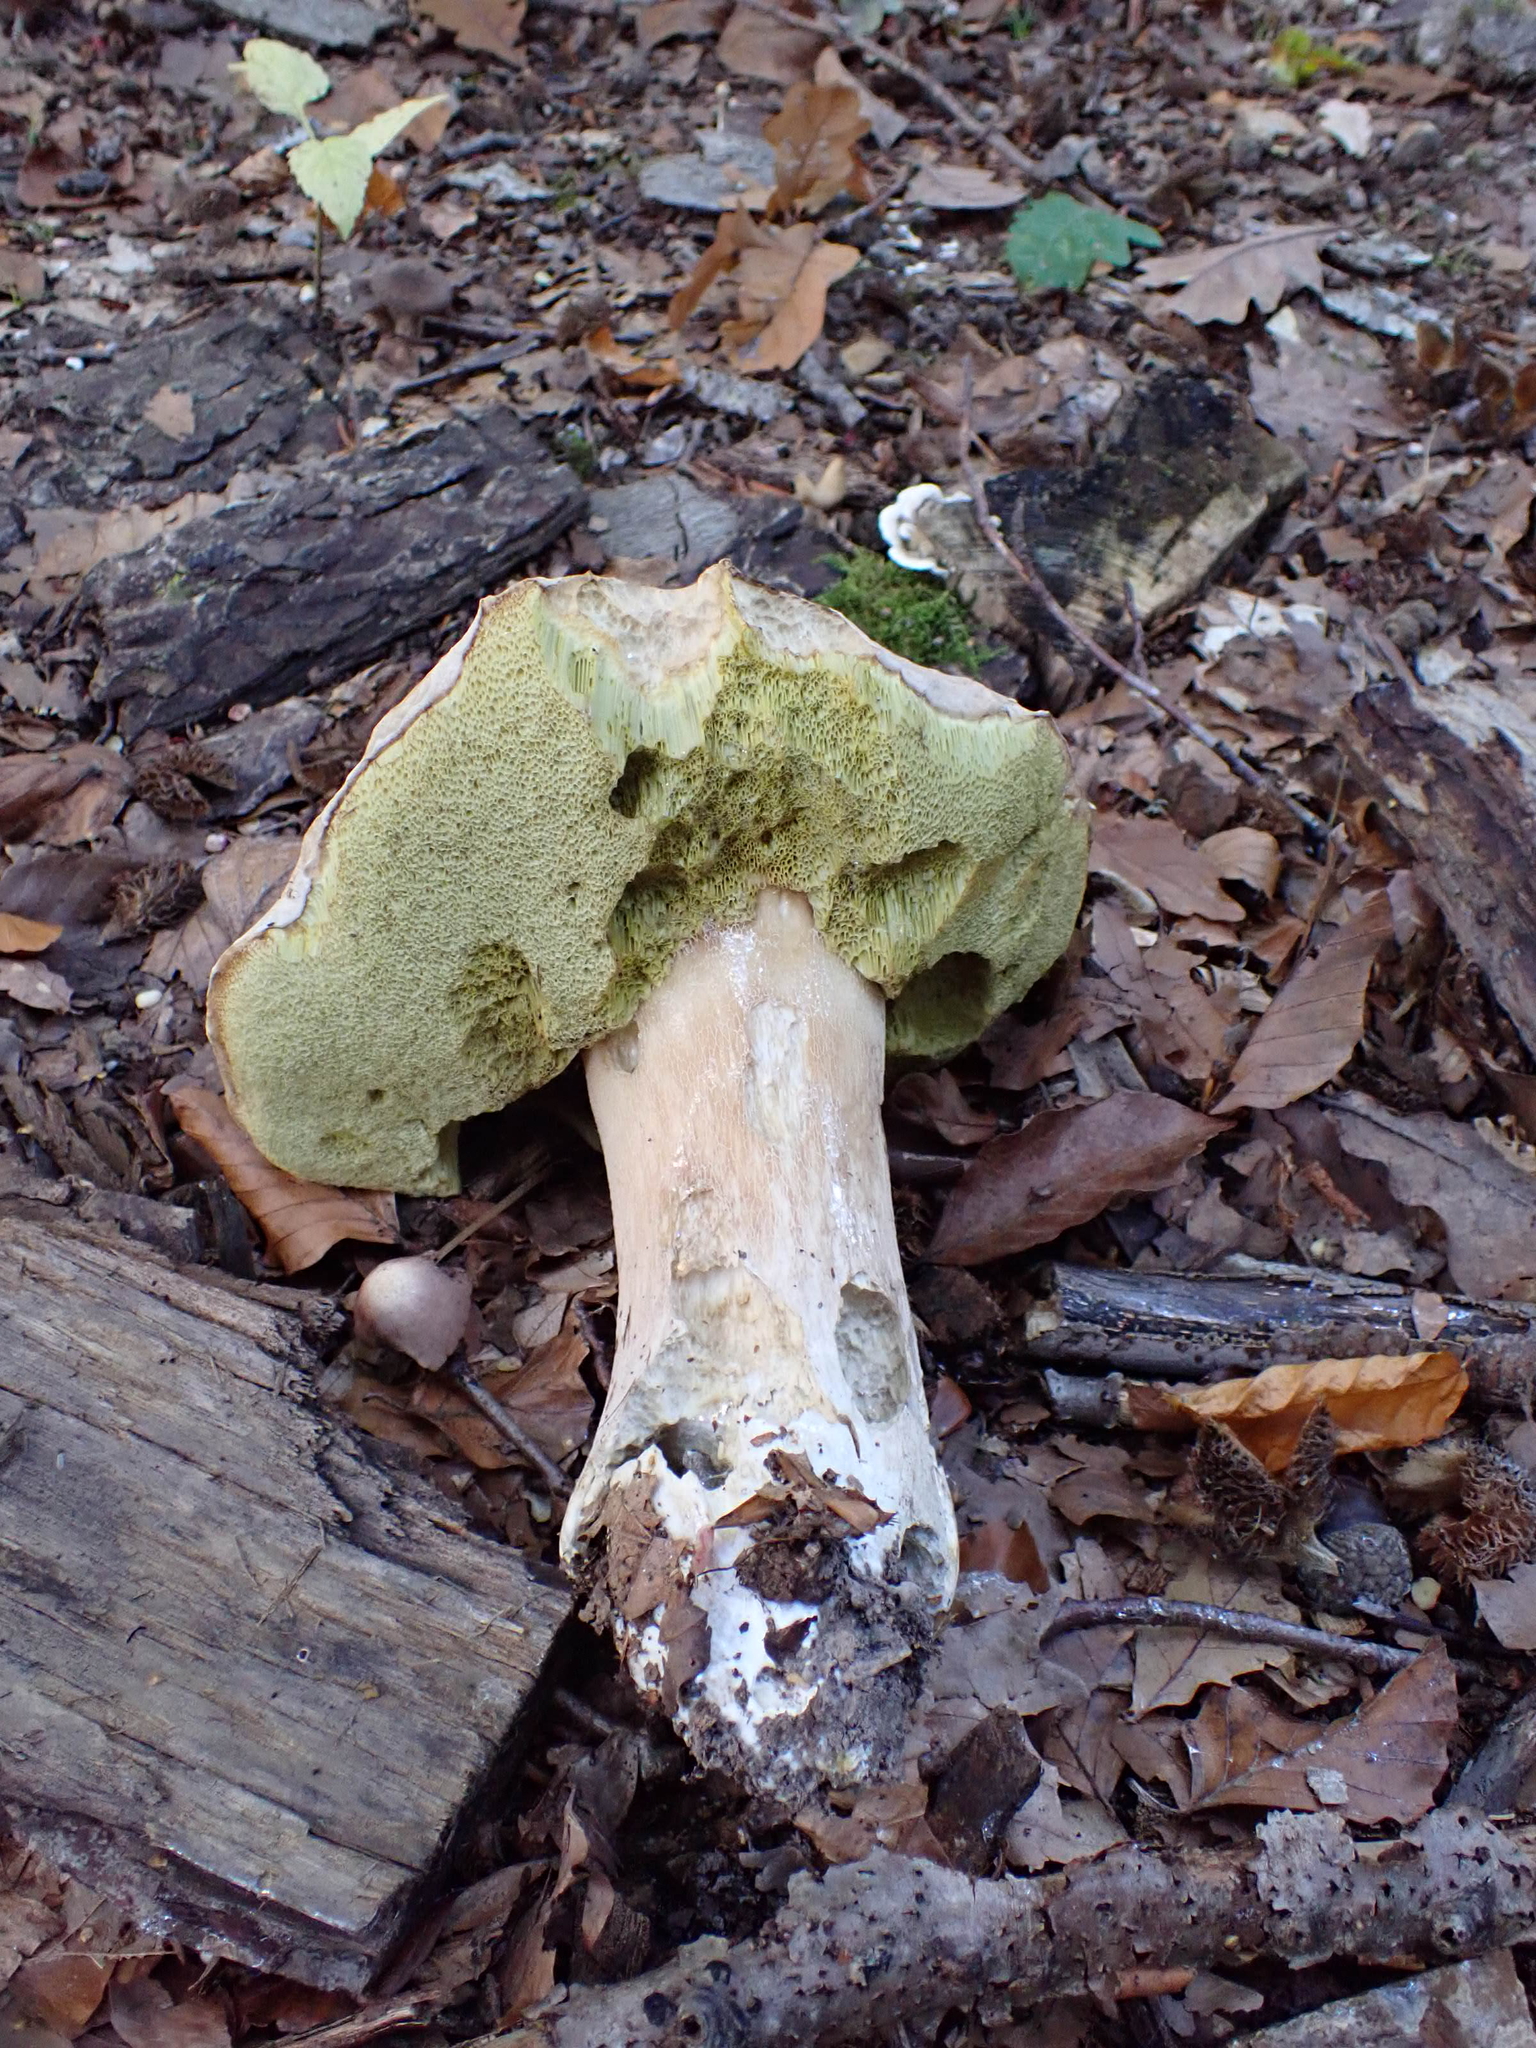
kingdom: Fungi
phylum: Basidiomycota
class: Agaricomycetes
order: Boletales
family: Boletaceae
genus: Boletus
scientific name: Boletus edulis
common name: Cep
